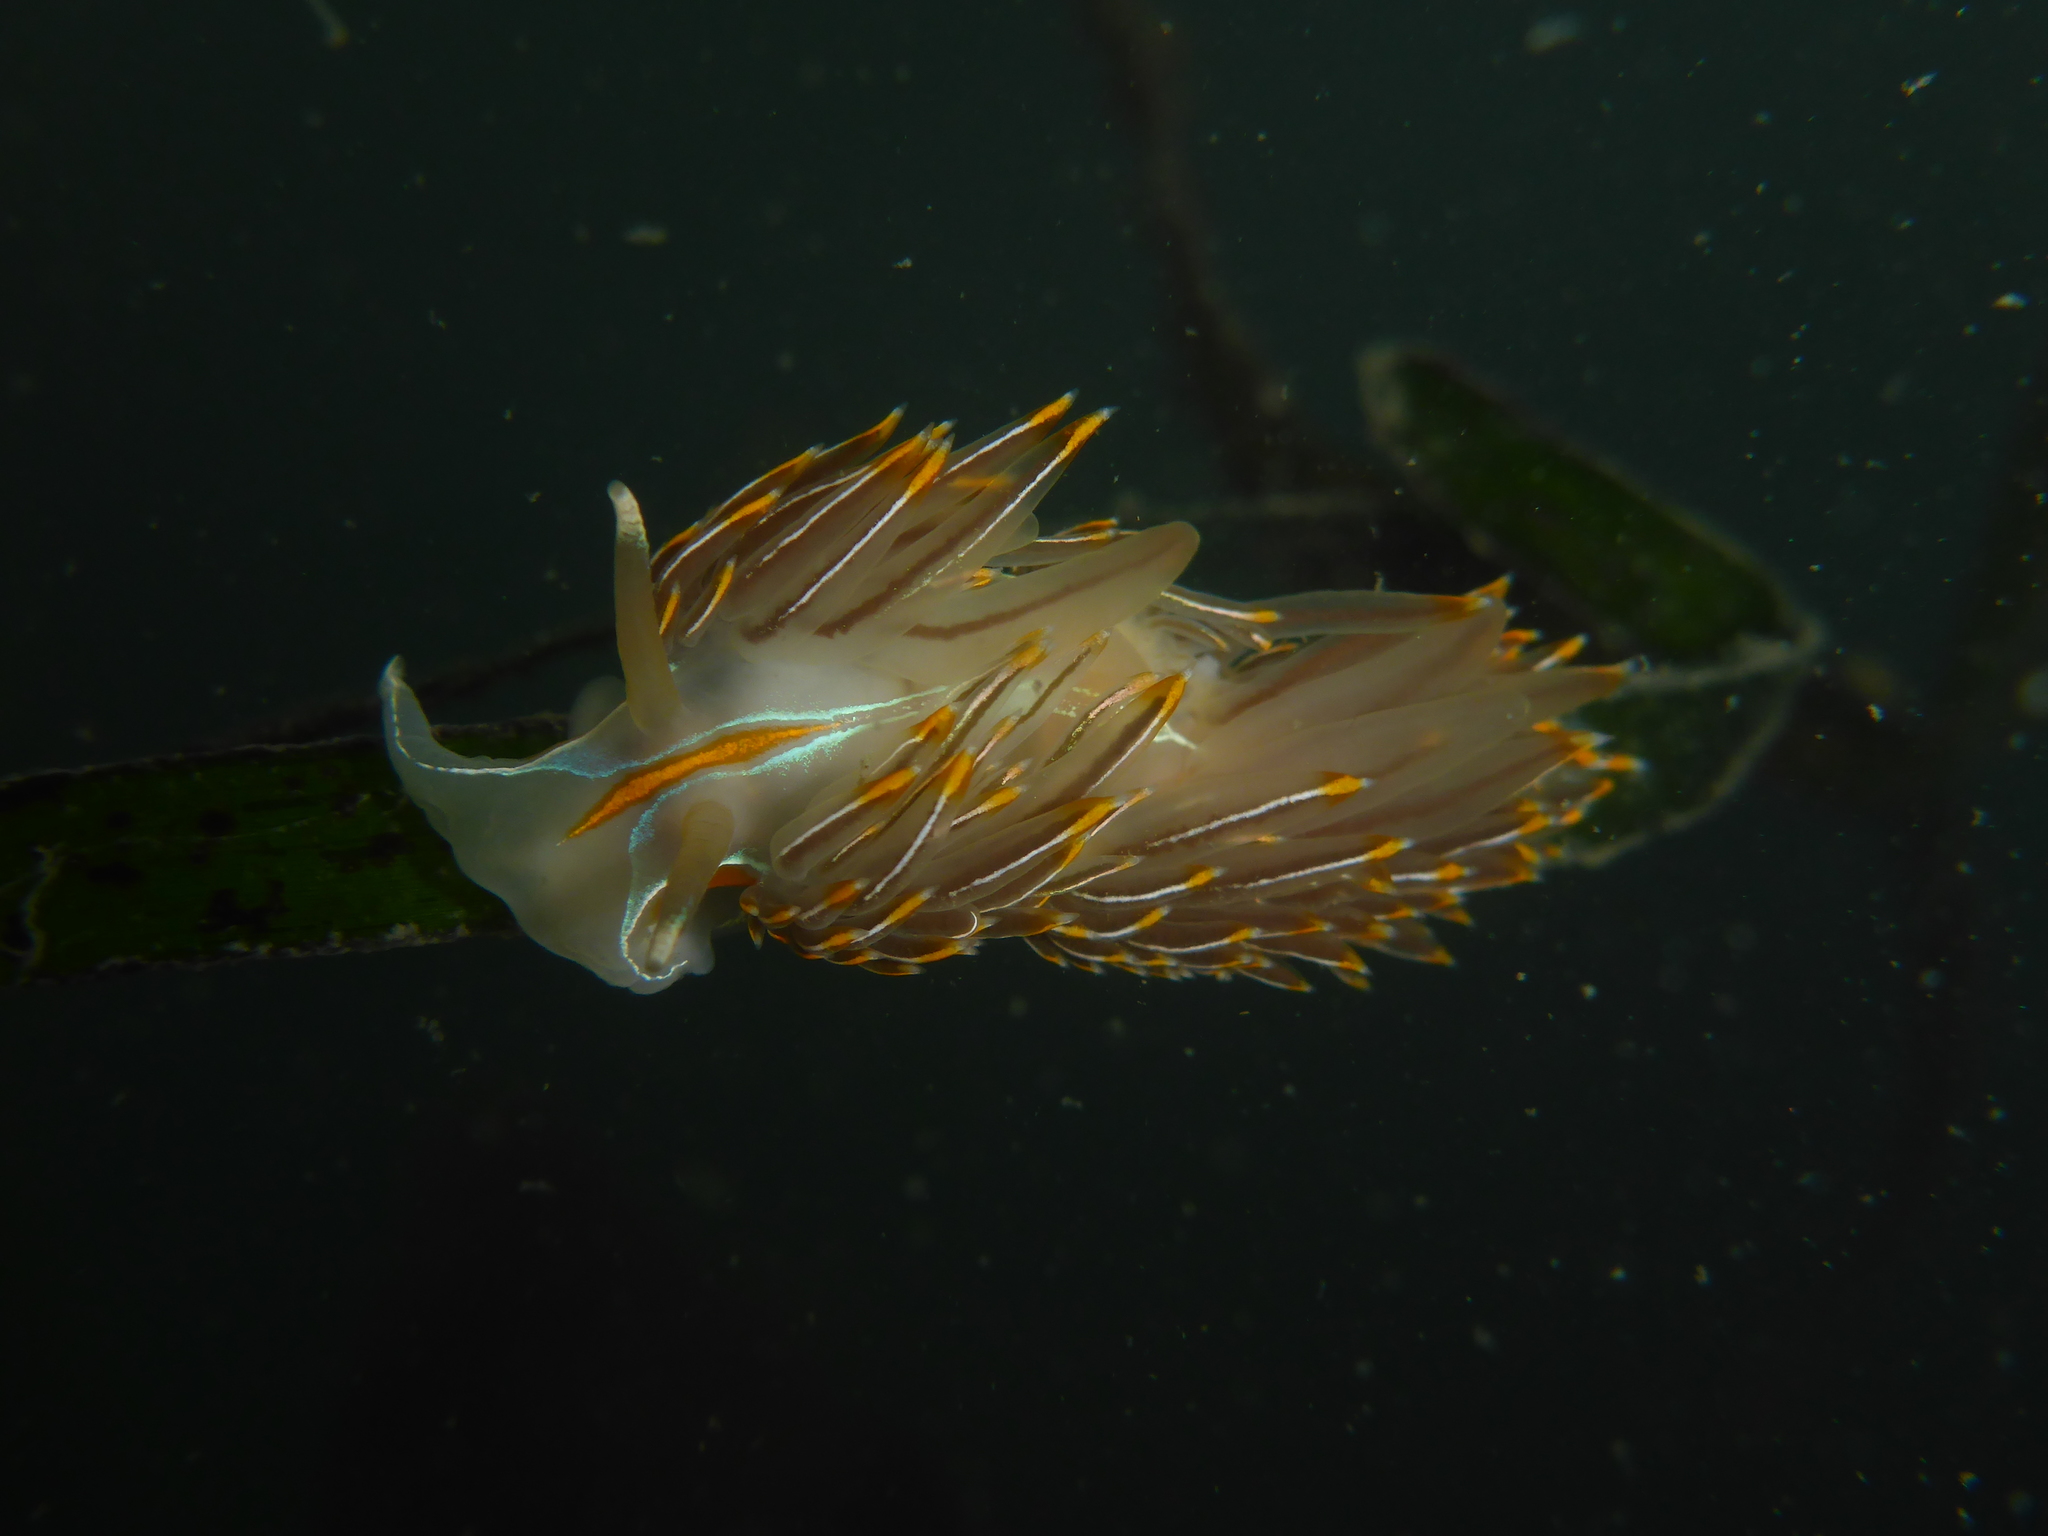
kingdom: Animalia
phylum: Mollusca
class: Gastropoda
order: Nudibranchia
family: Myrrhinidae
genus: Hermissenda
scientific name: Hermissenda crassicornis
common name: Hermissenda
